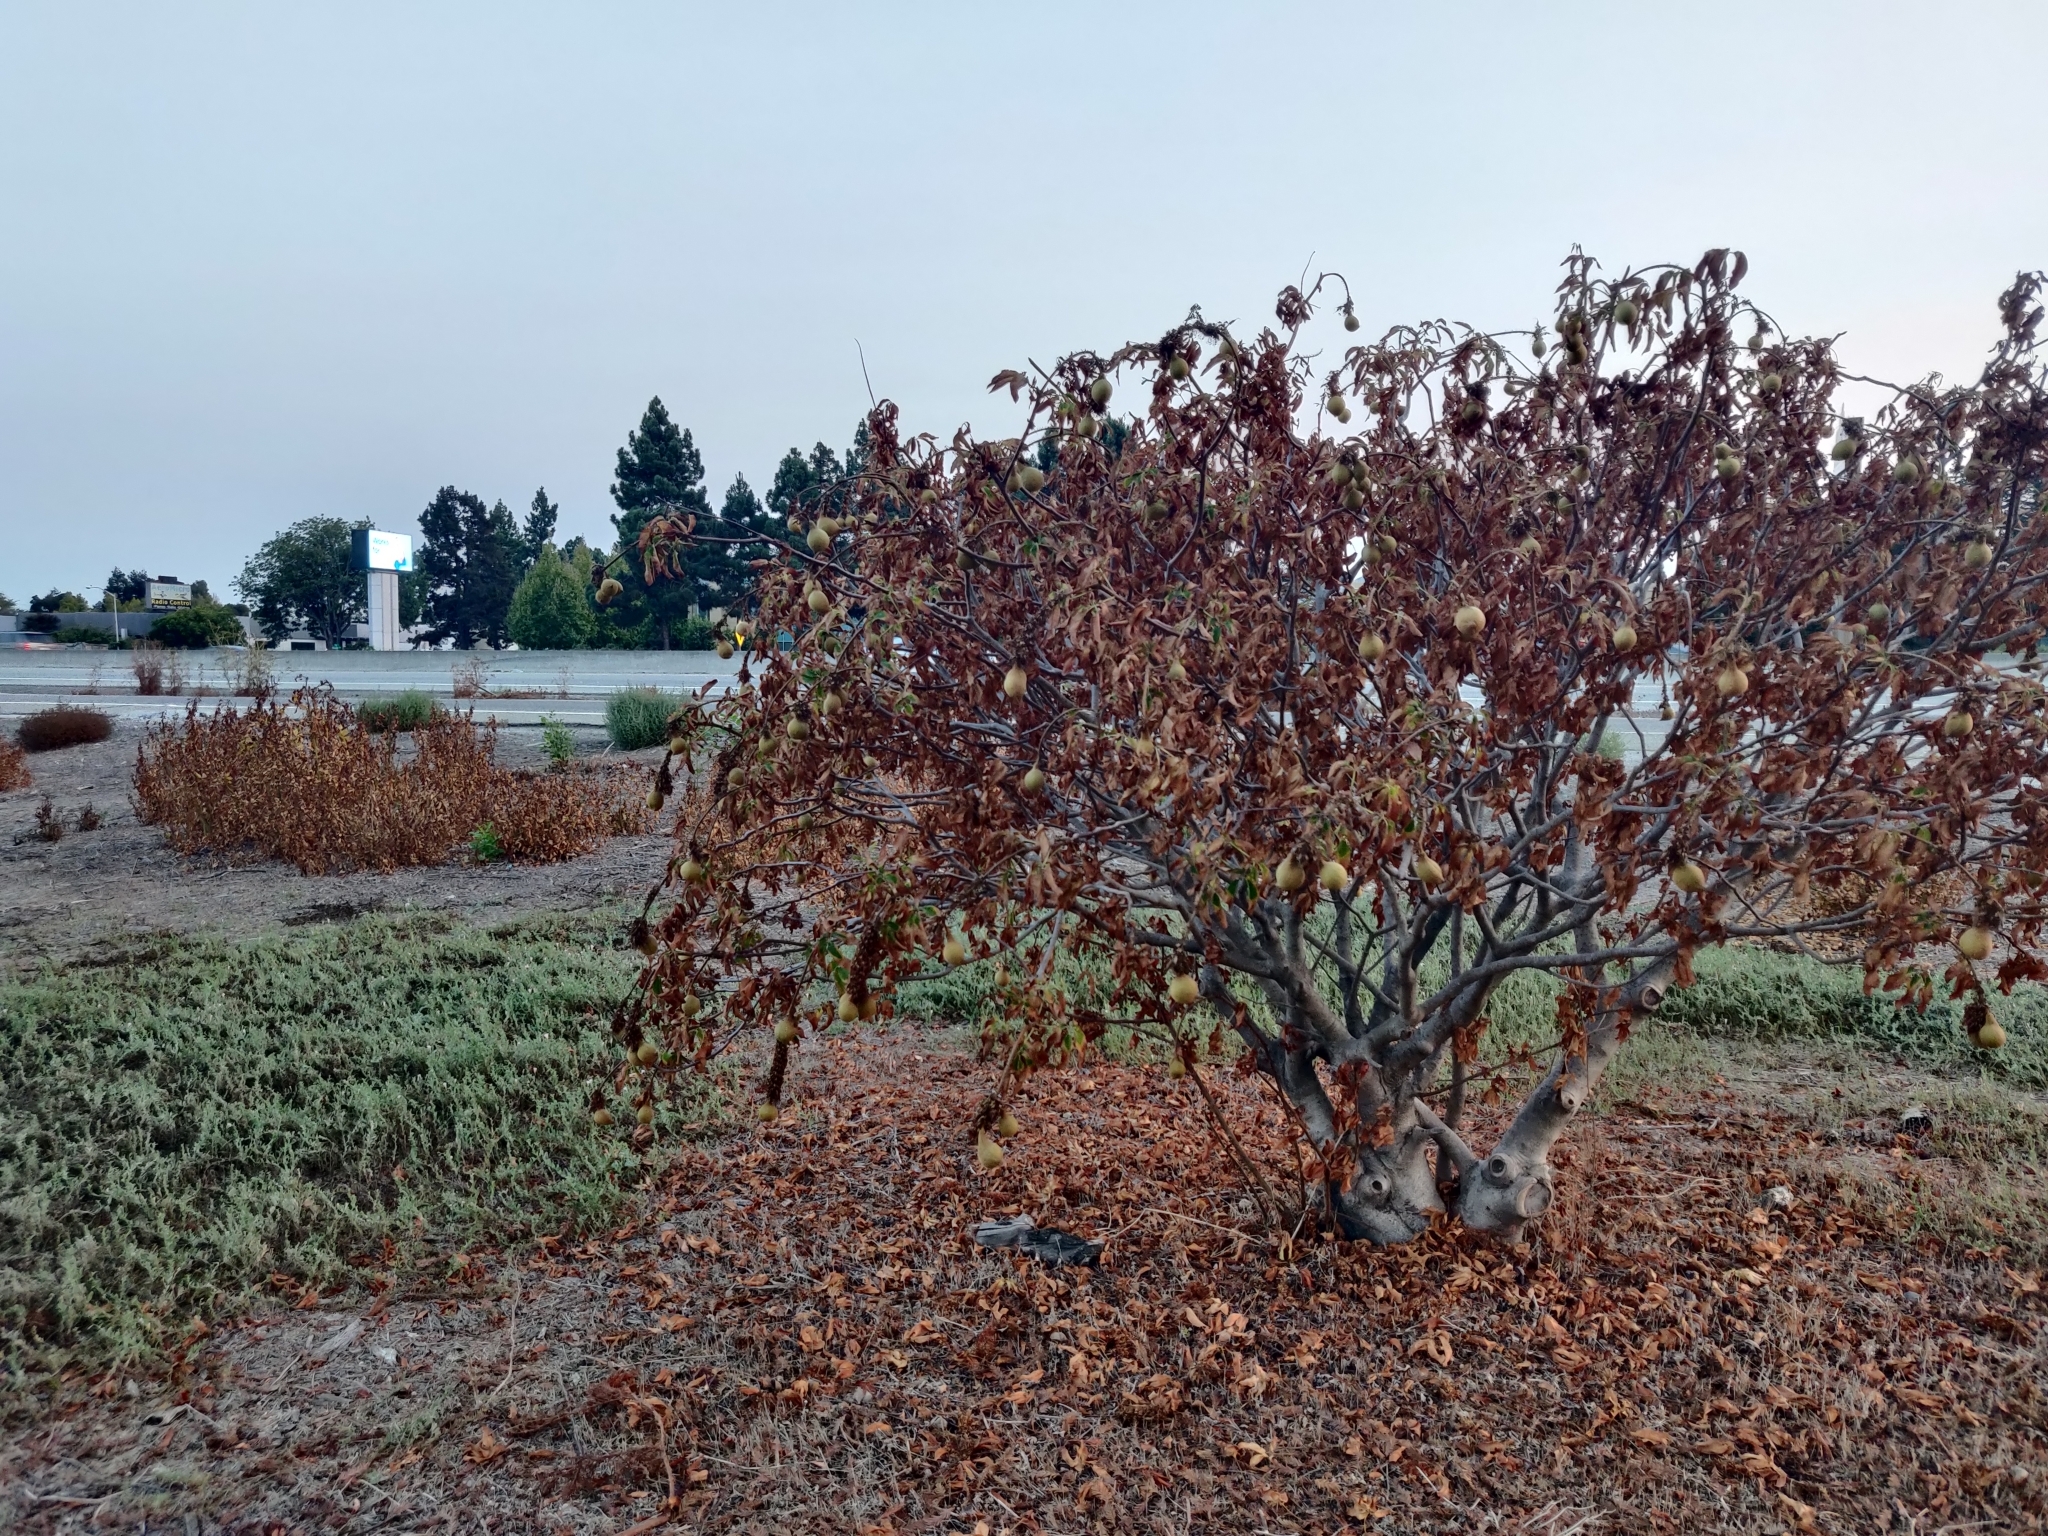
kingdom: Plantae
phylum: Tracheophyta
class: Magnoliopsida
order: Sapindales
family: Sapindaceae
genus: Aesculus
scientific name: Aesculus californica
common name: California buckeye
